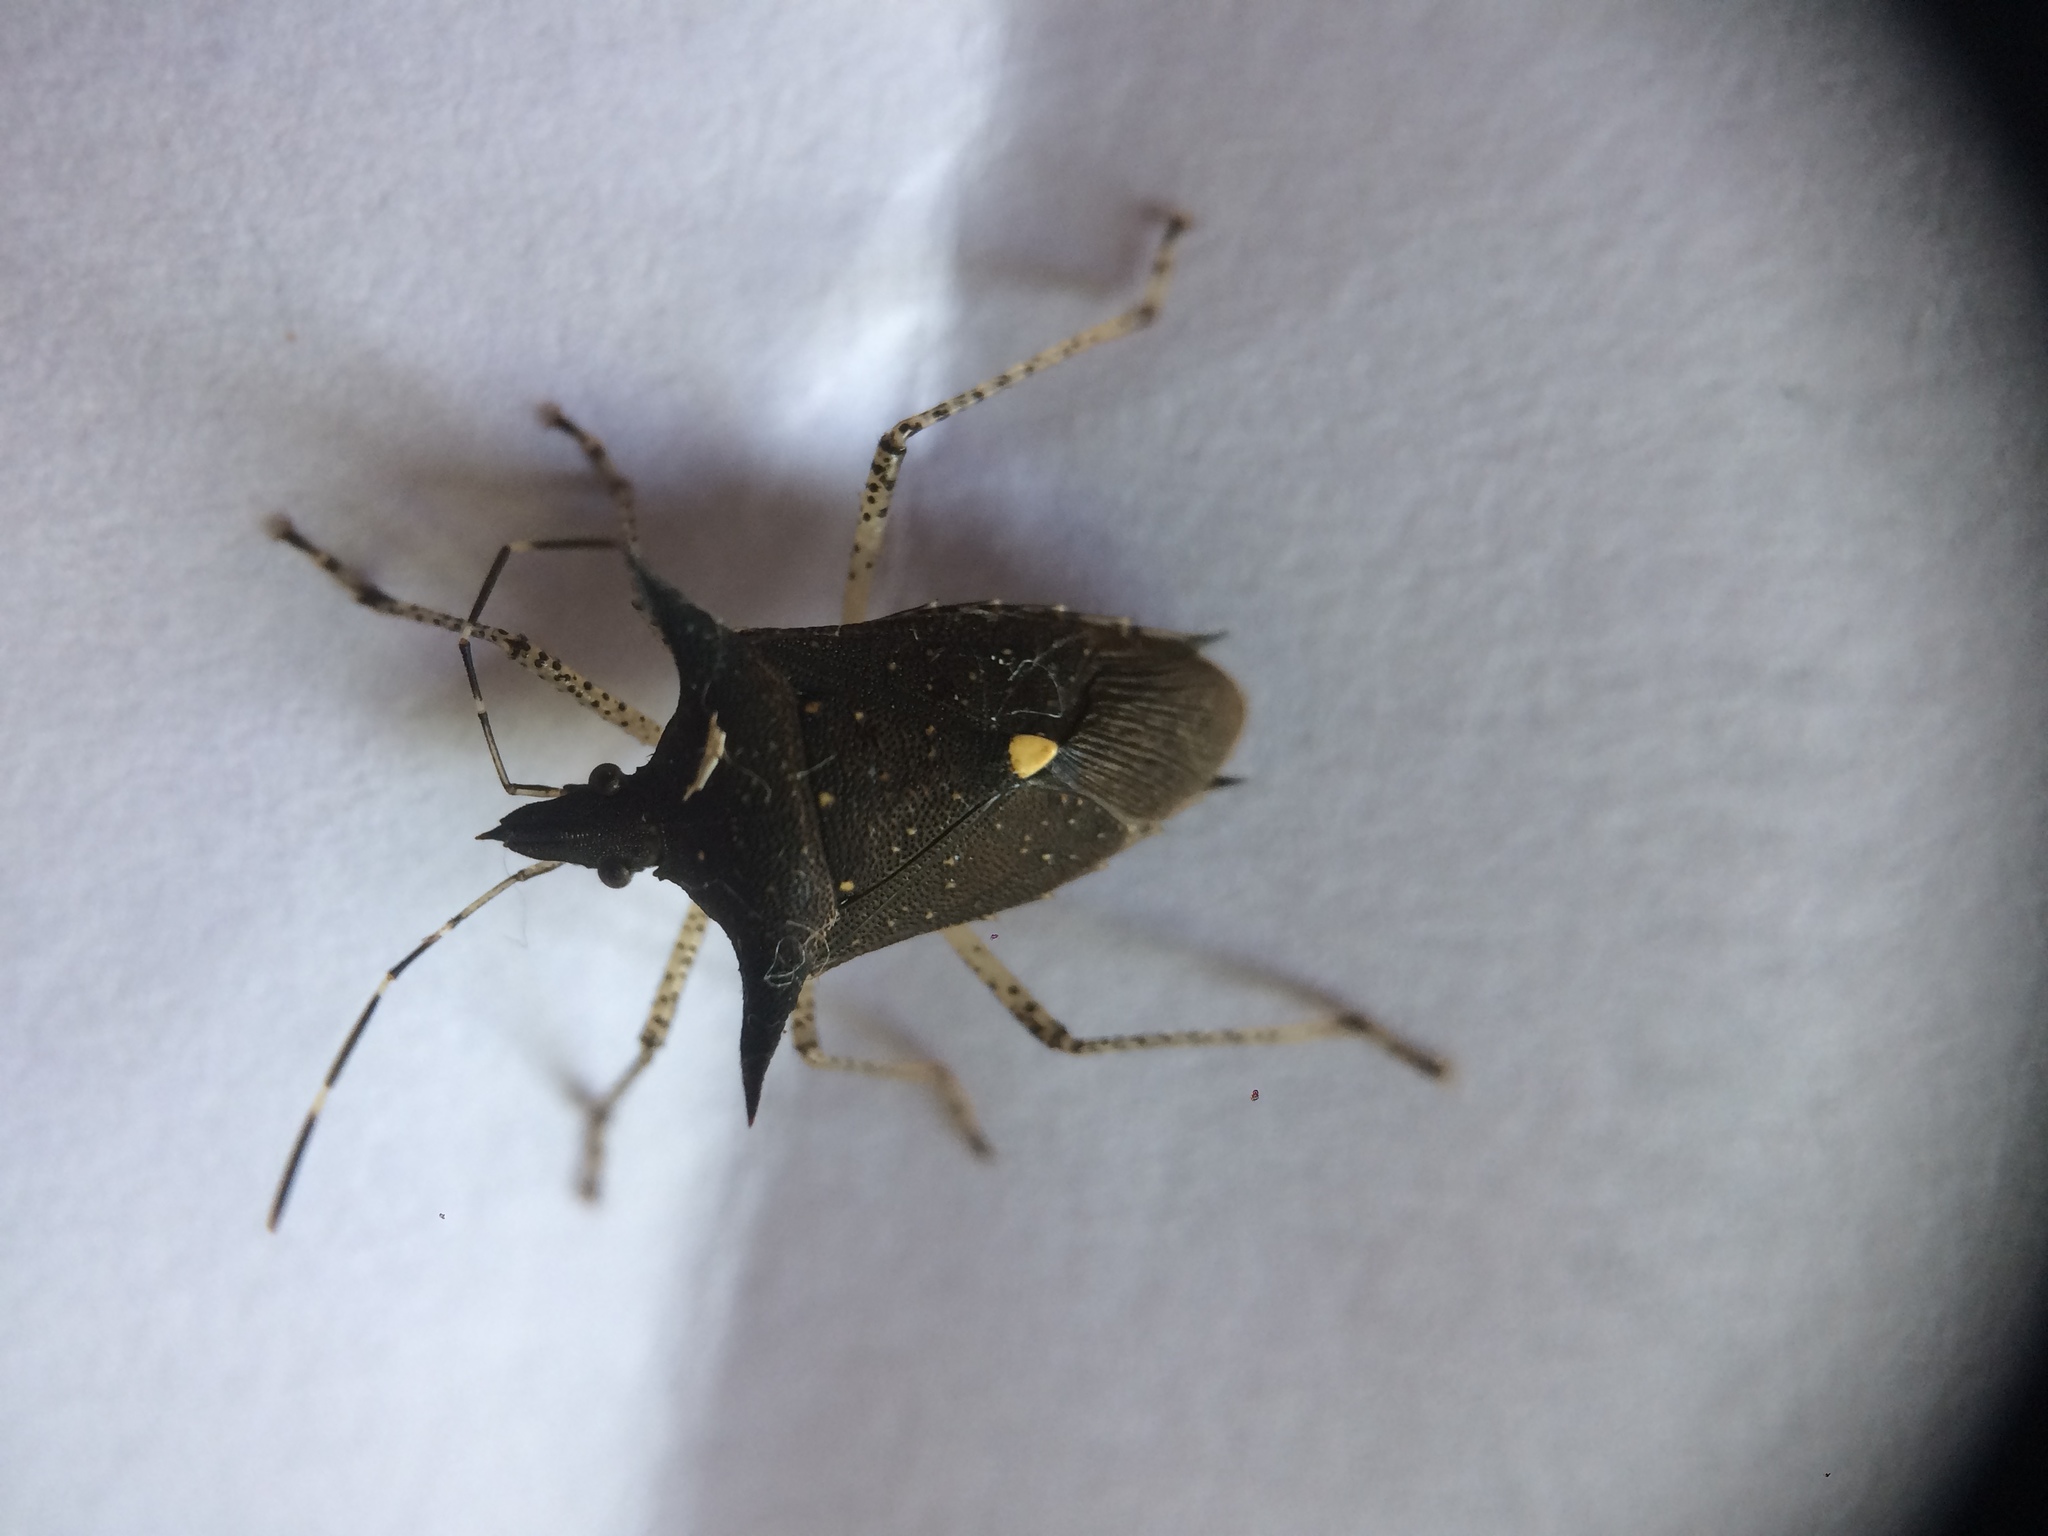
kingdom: Animalia
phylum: Arthropoda
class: Insecta
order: Hemiptera
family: Pentatomidae
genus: Proxys
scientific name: Proxys albopunctulatus
